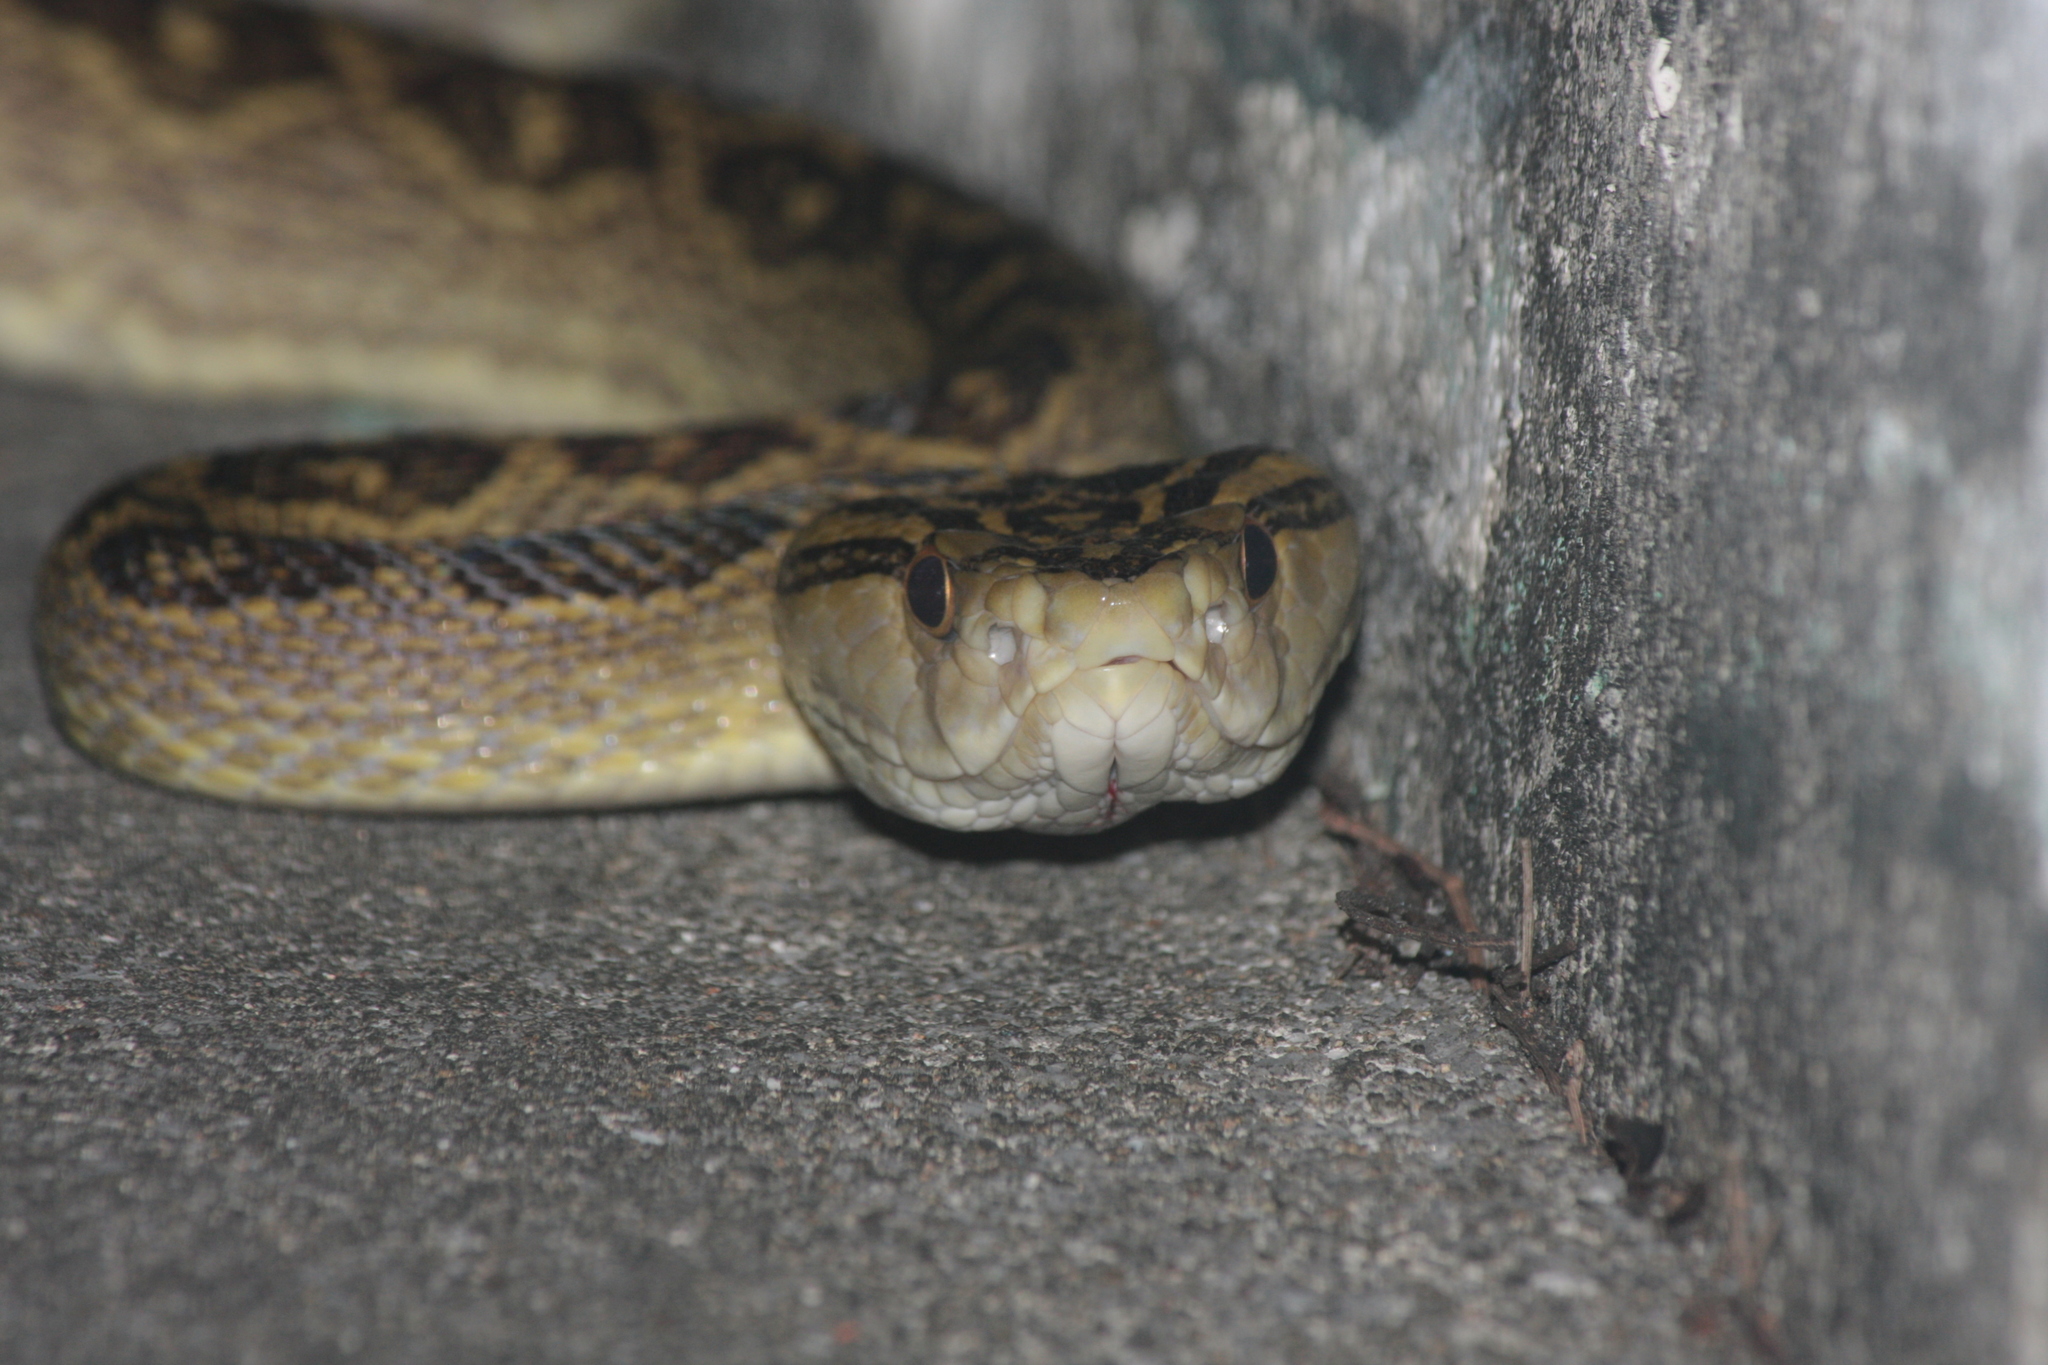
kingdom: Animalia
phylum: Chordata
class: Squamata
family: Viperidae
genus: Protobothrops
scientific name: Protobothrops flavoviridis
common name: Habu
